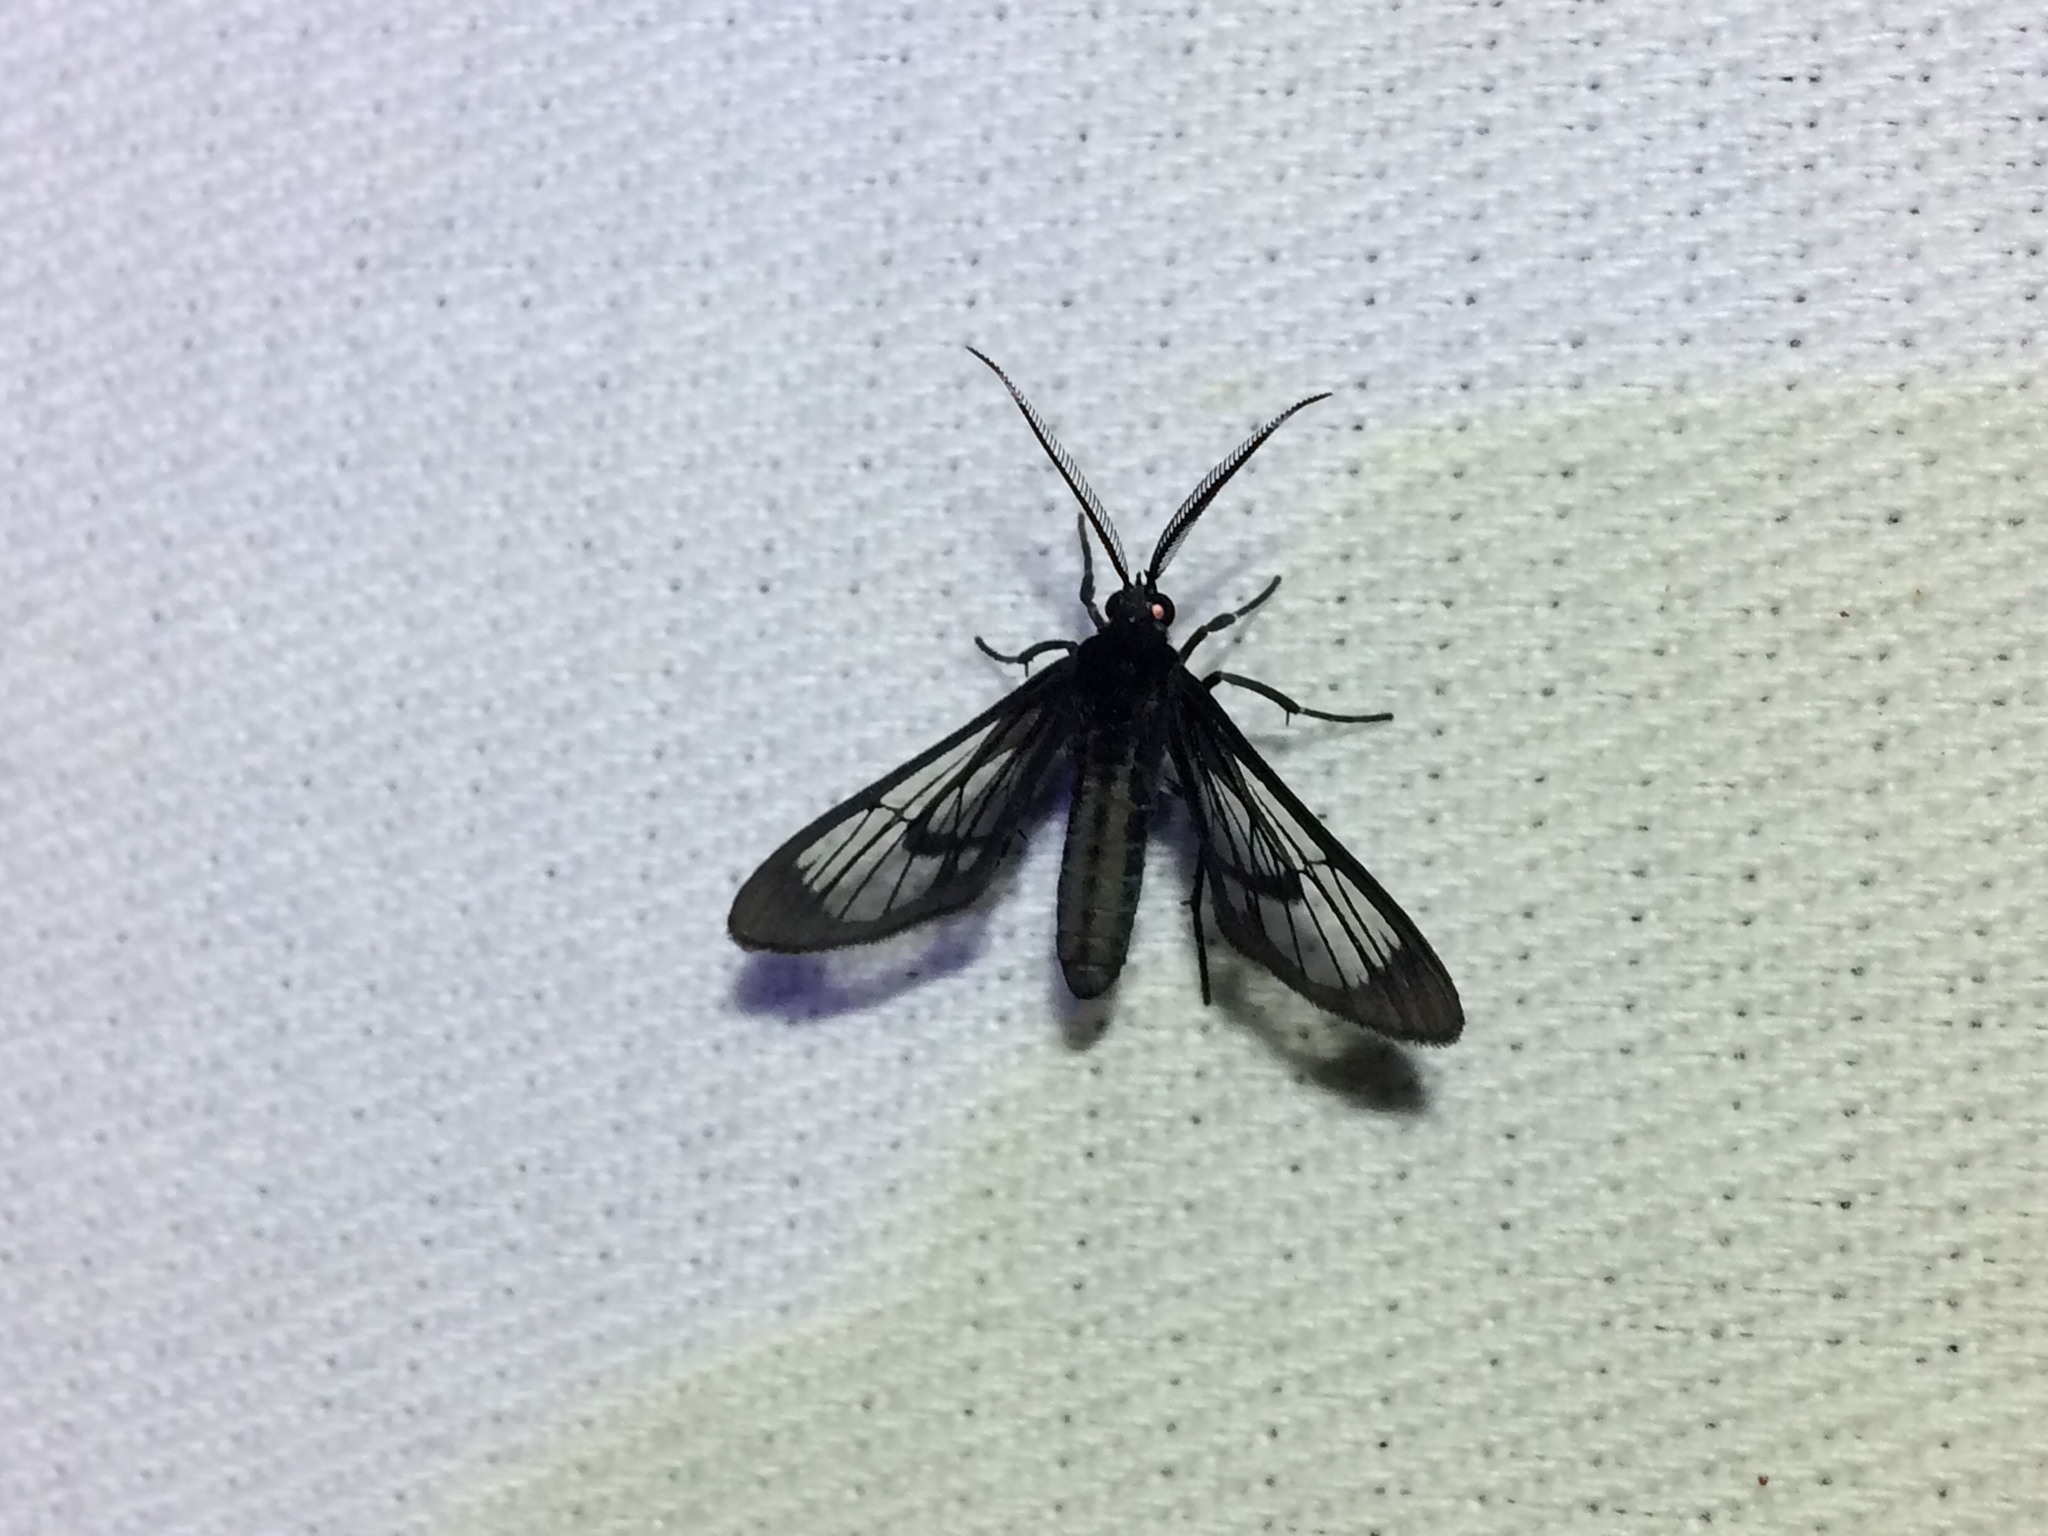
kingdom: Animalia
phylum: Arthropoda
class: Insecta
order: Lepidoptera
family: Erebidae
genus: Loxophlebia
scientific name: Loxophlebia austeria
